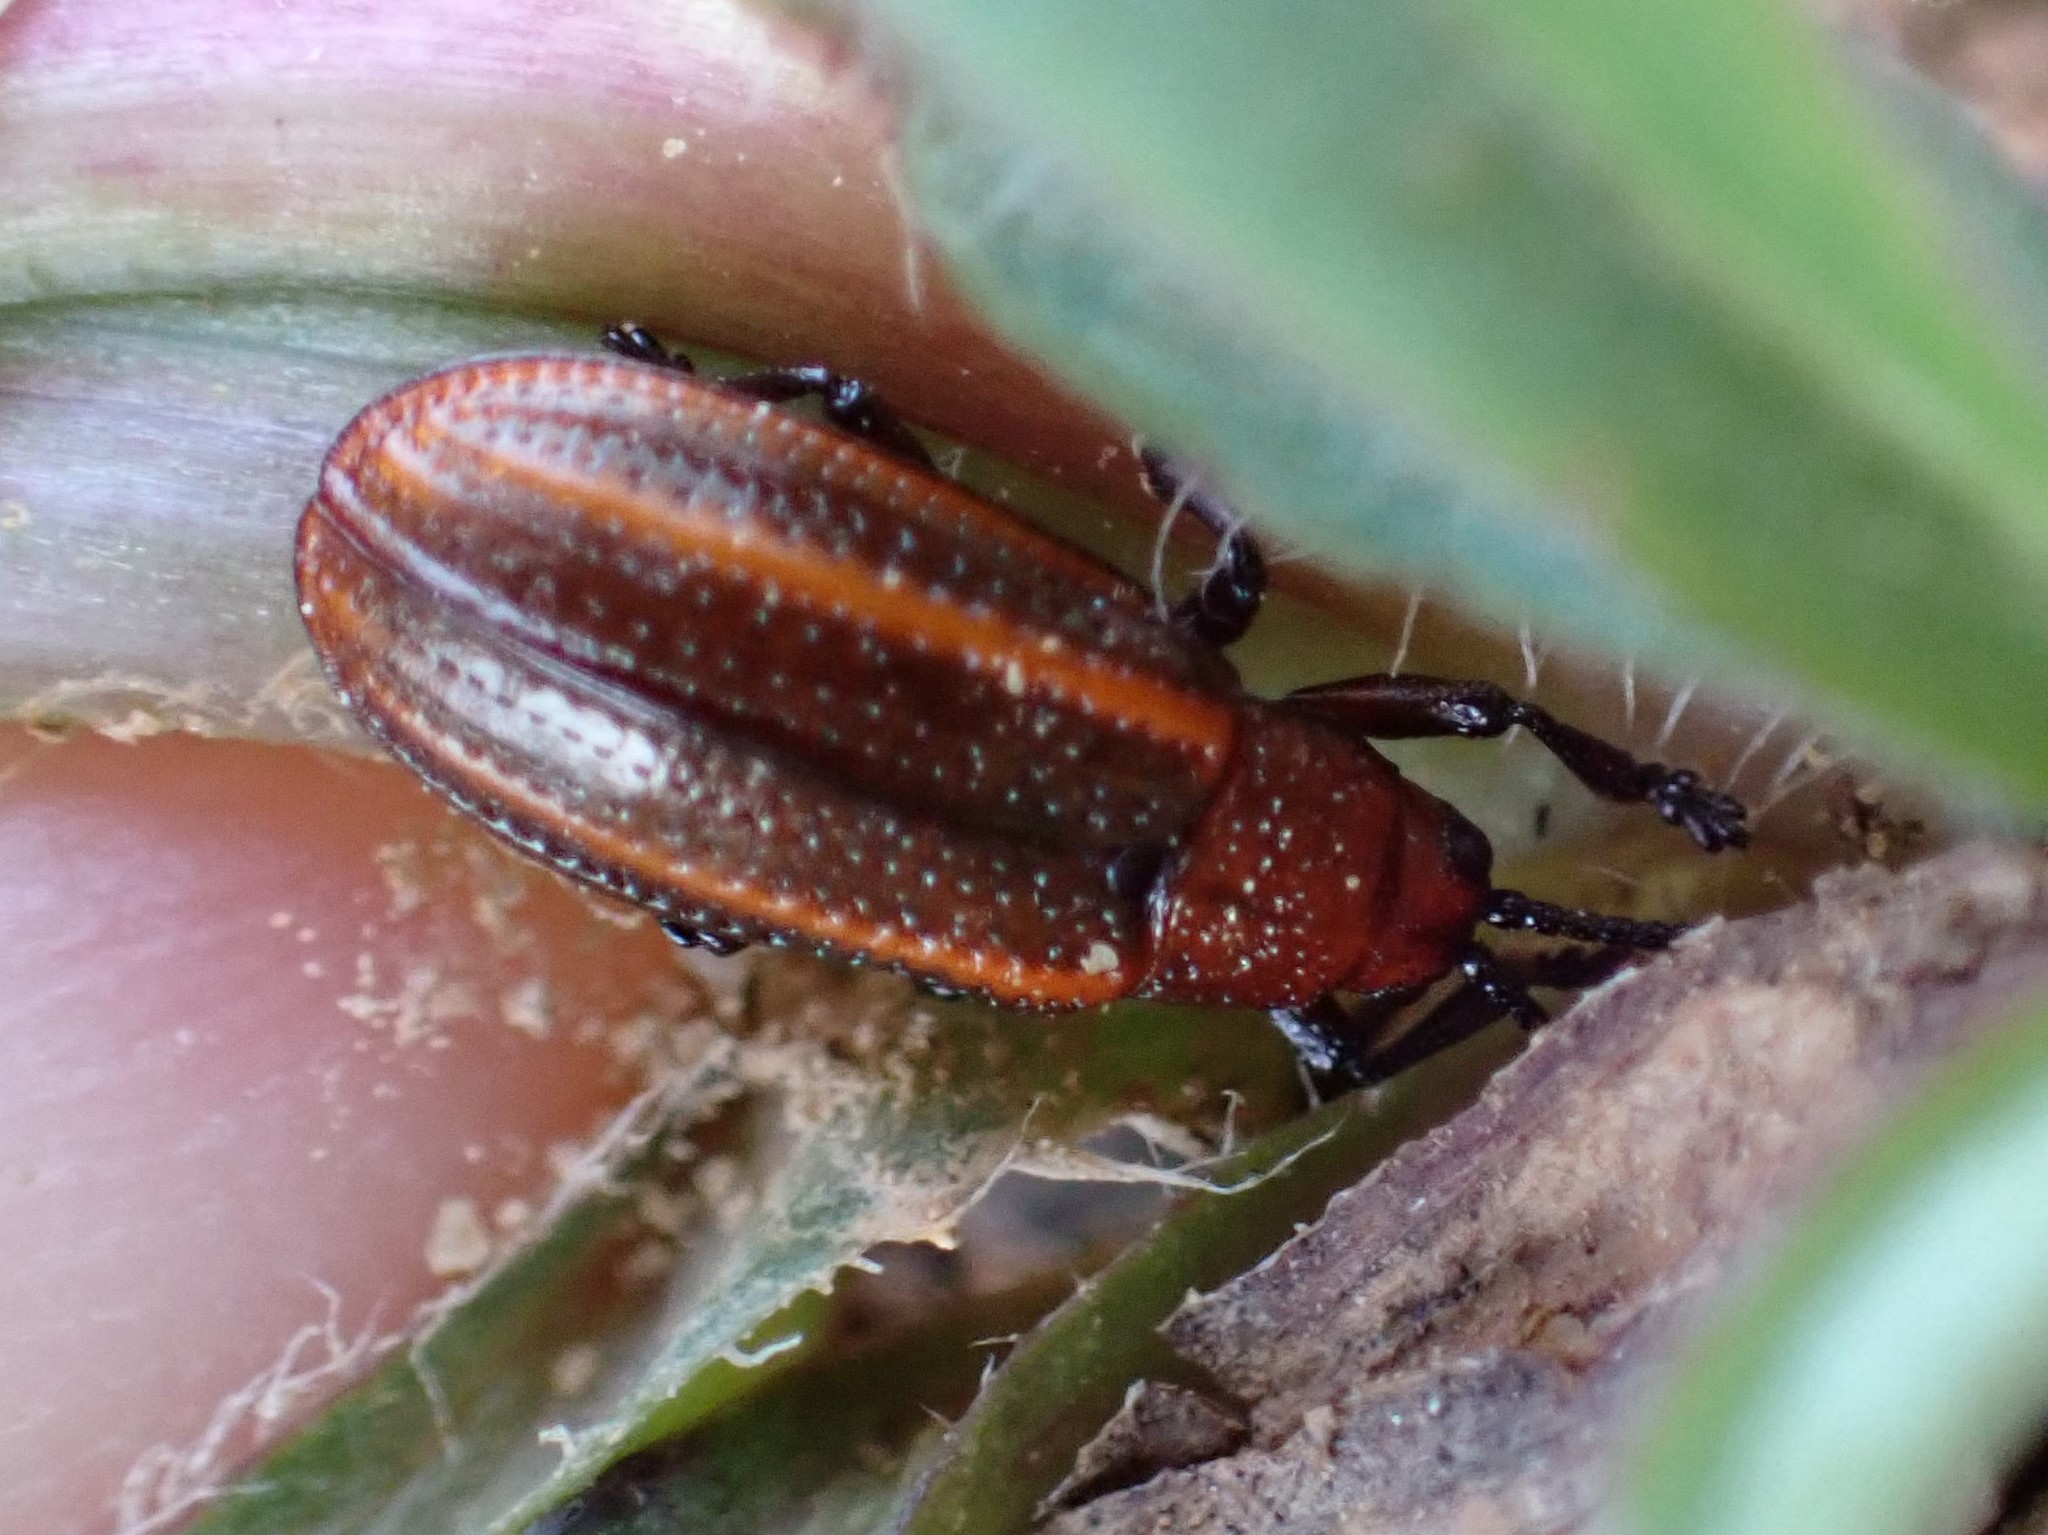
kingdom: Animalia
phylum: Arthropoda
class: Insecta
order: Coleoptera
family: Chrysomelidae
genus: Microrhopala
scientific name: Microrhopala vittata
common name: Goldenrod leaf miner beetle
